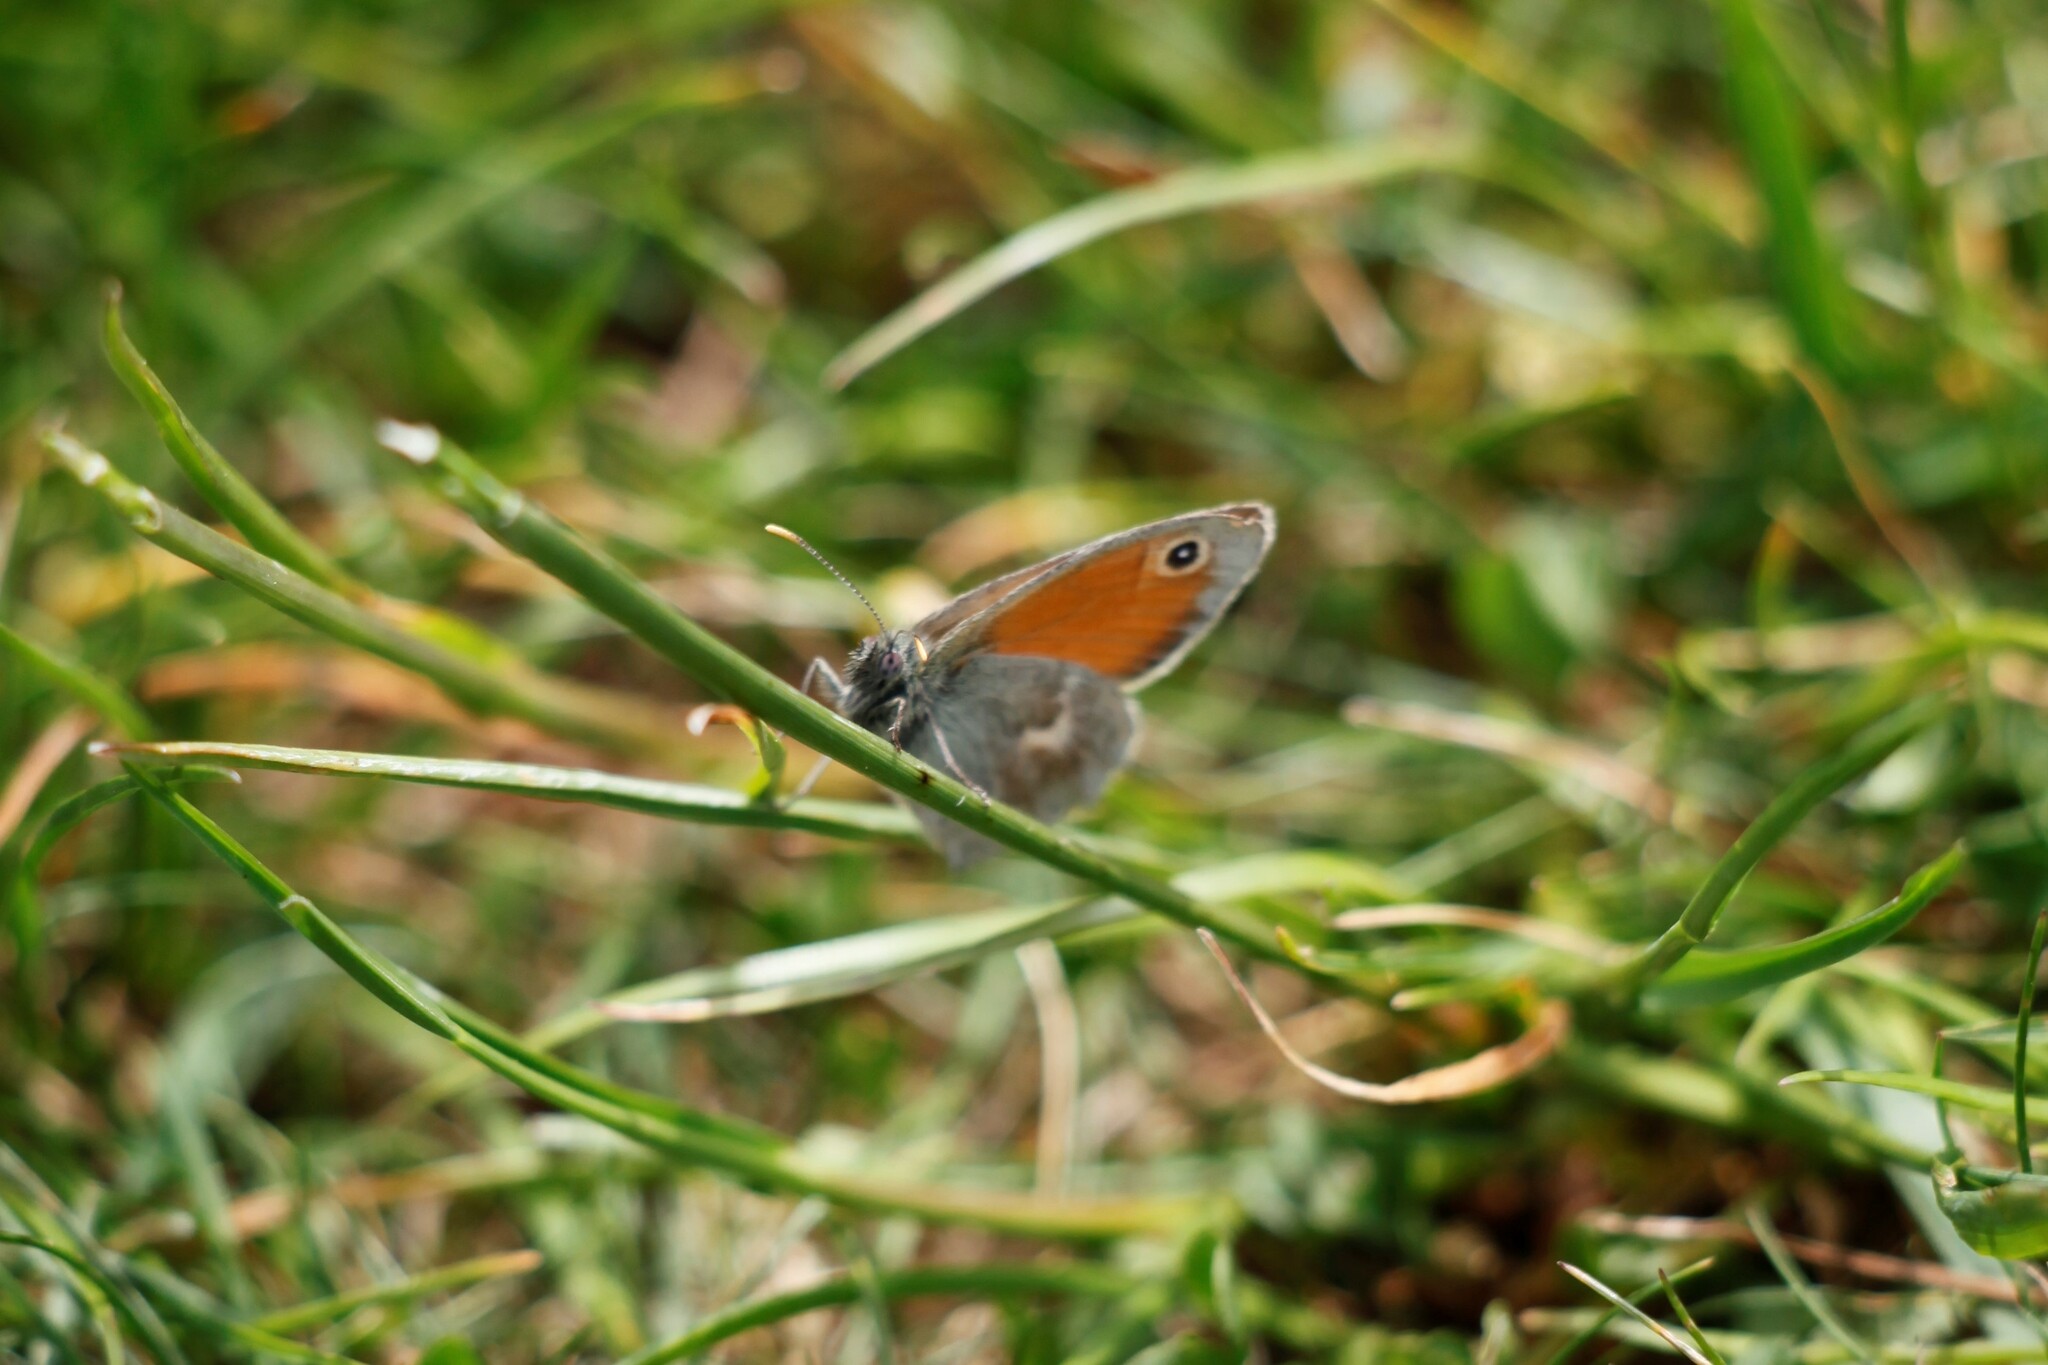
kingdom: Animalia
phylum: Arthropoda
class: Insecta
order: Lepidoptera
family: Nymphalidae
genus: Coenonympha
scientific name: Coenonympha pamphilus
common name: Small heath
